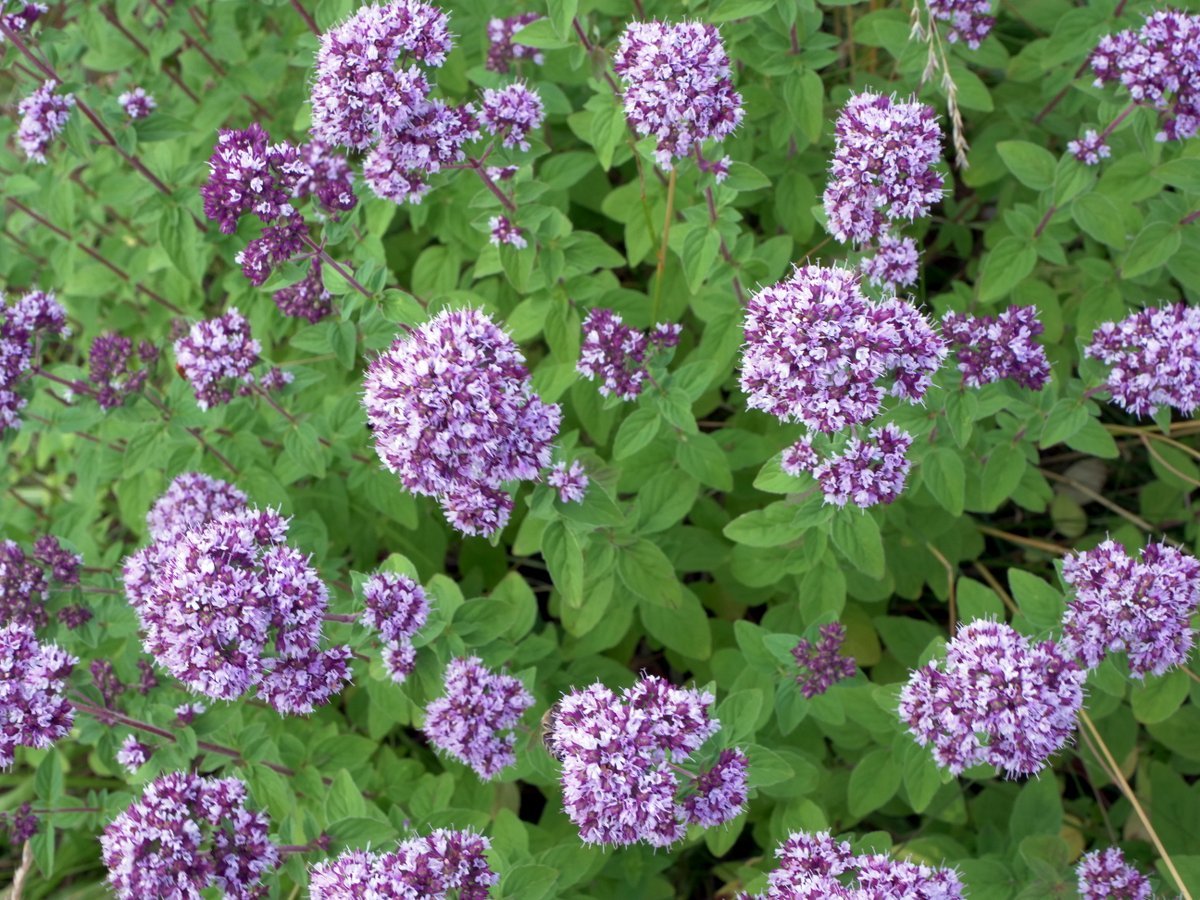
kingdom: Plantae
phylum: Tracheophyta
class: Magnoliopsida
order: Lamiales
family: Lamiaceae
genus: Origanum
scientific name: Origanum vulgare
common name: Wild marjoram
